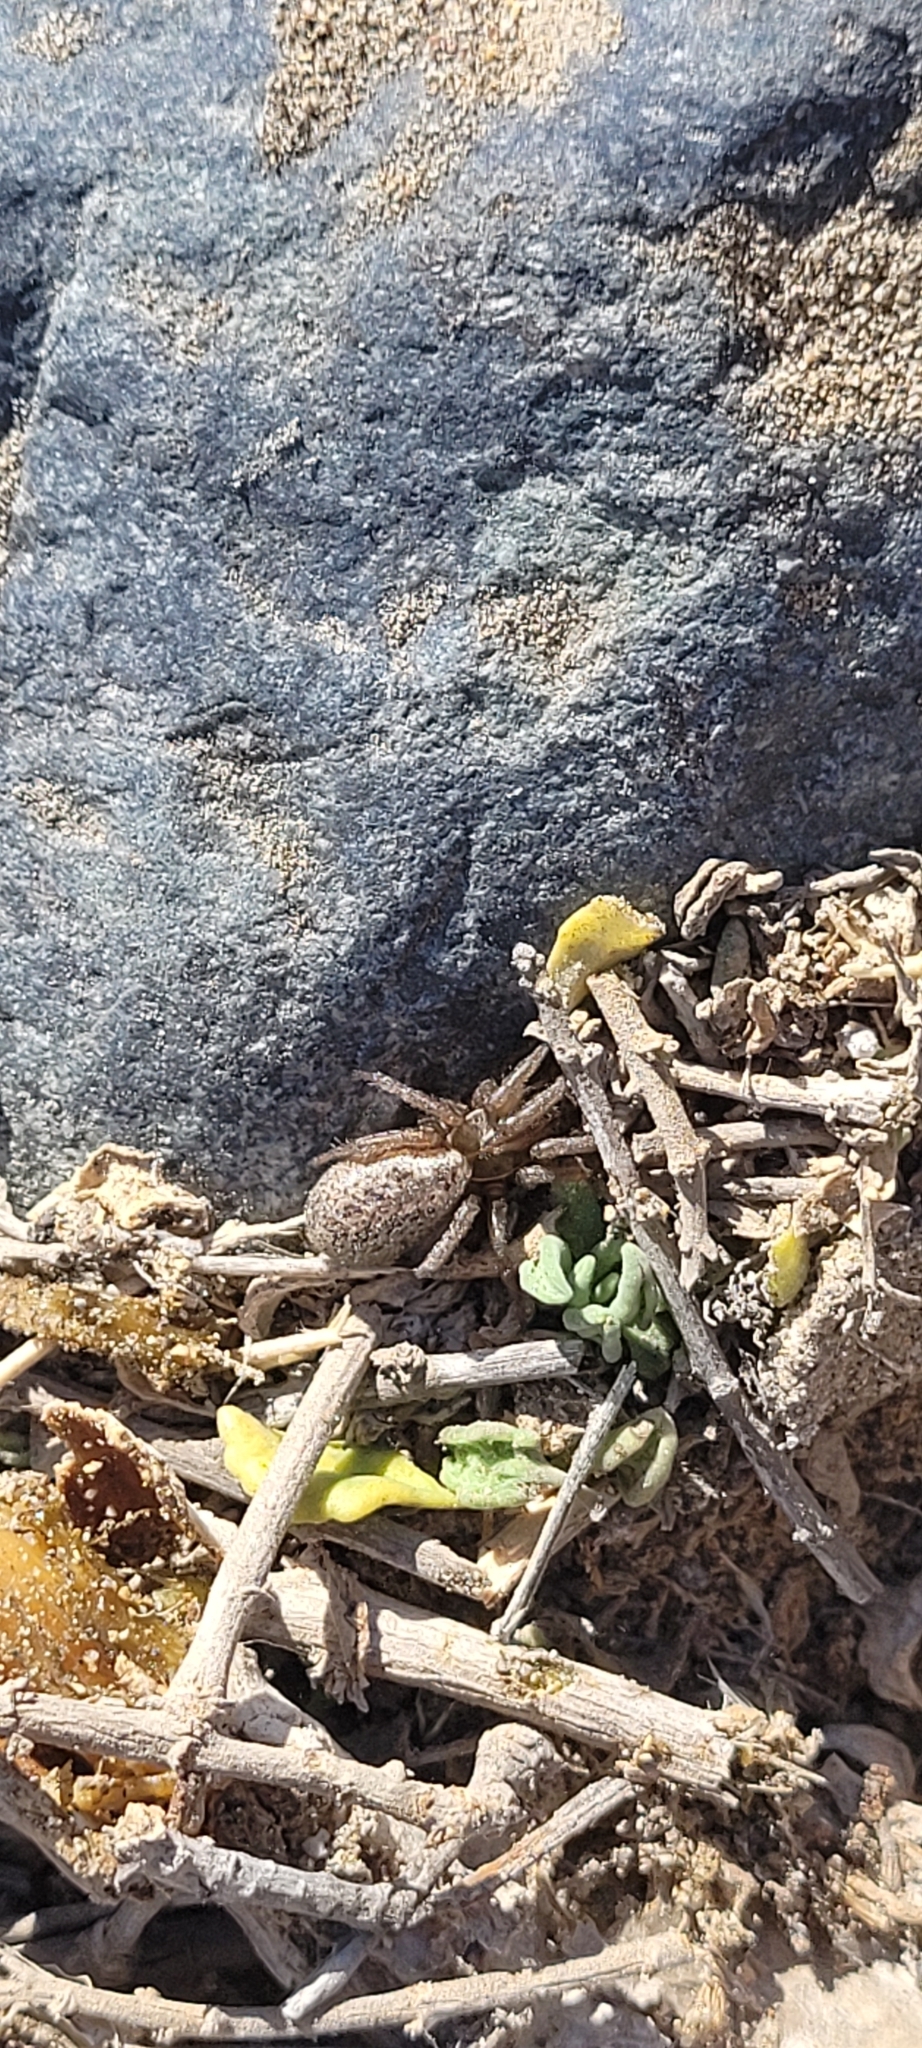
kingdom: Animalia
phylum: Arthropoda
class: Arachnida
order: Araneae
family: Zodariidae
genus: Cybaeodamus
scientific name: Cybaeodamus lycosoides
